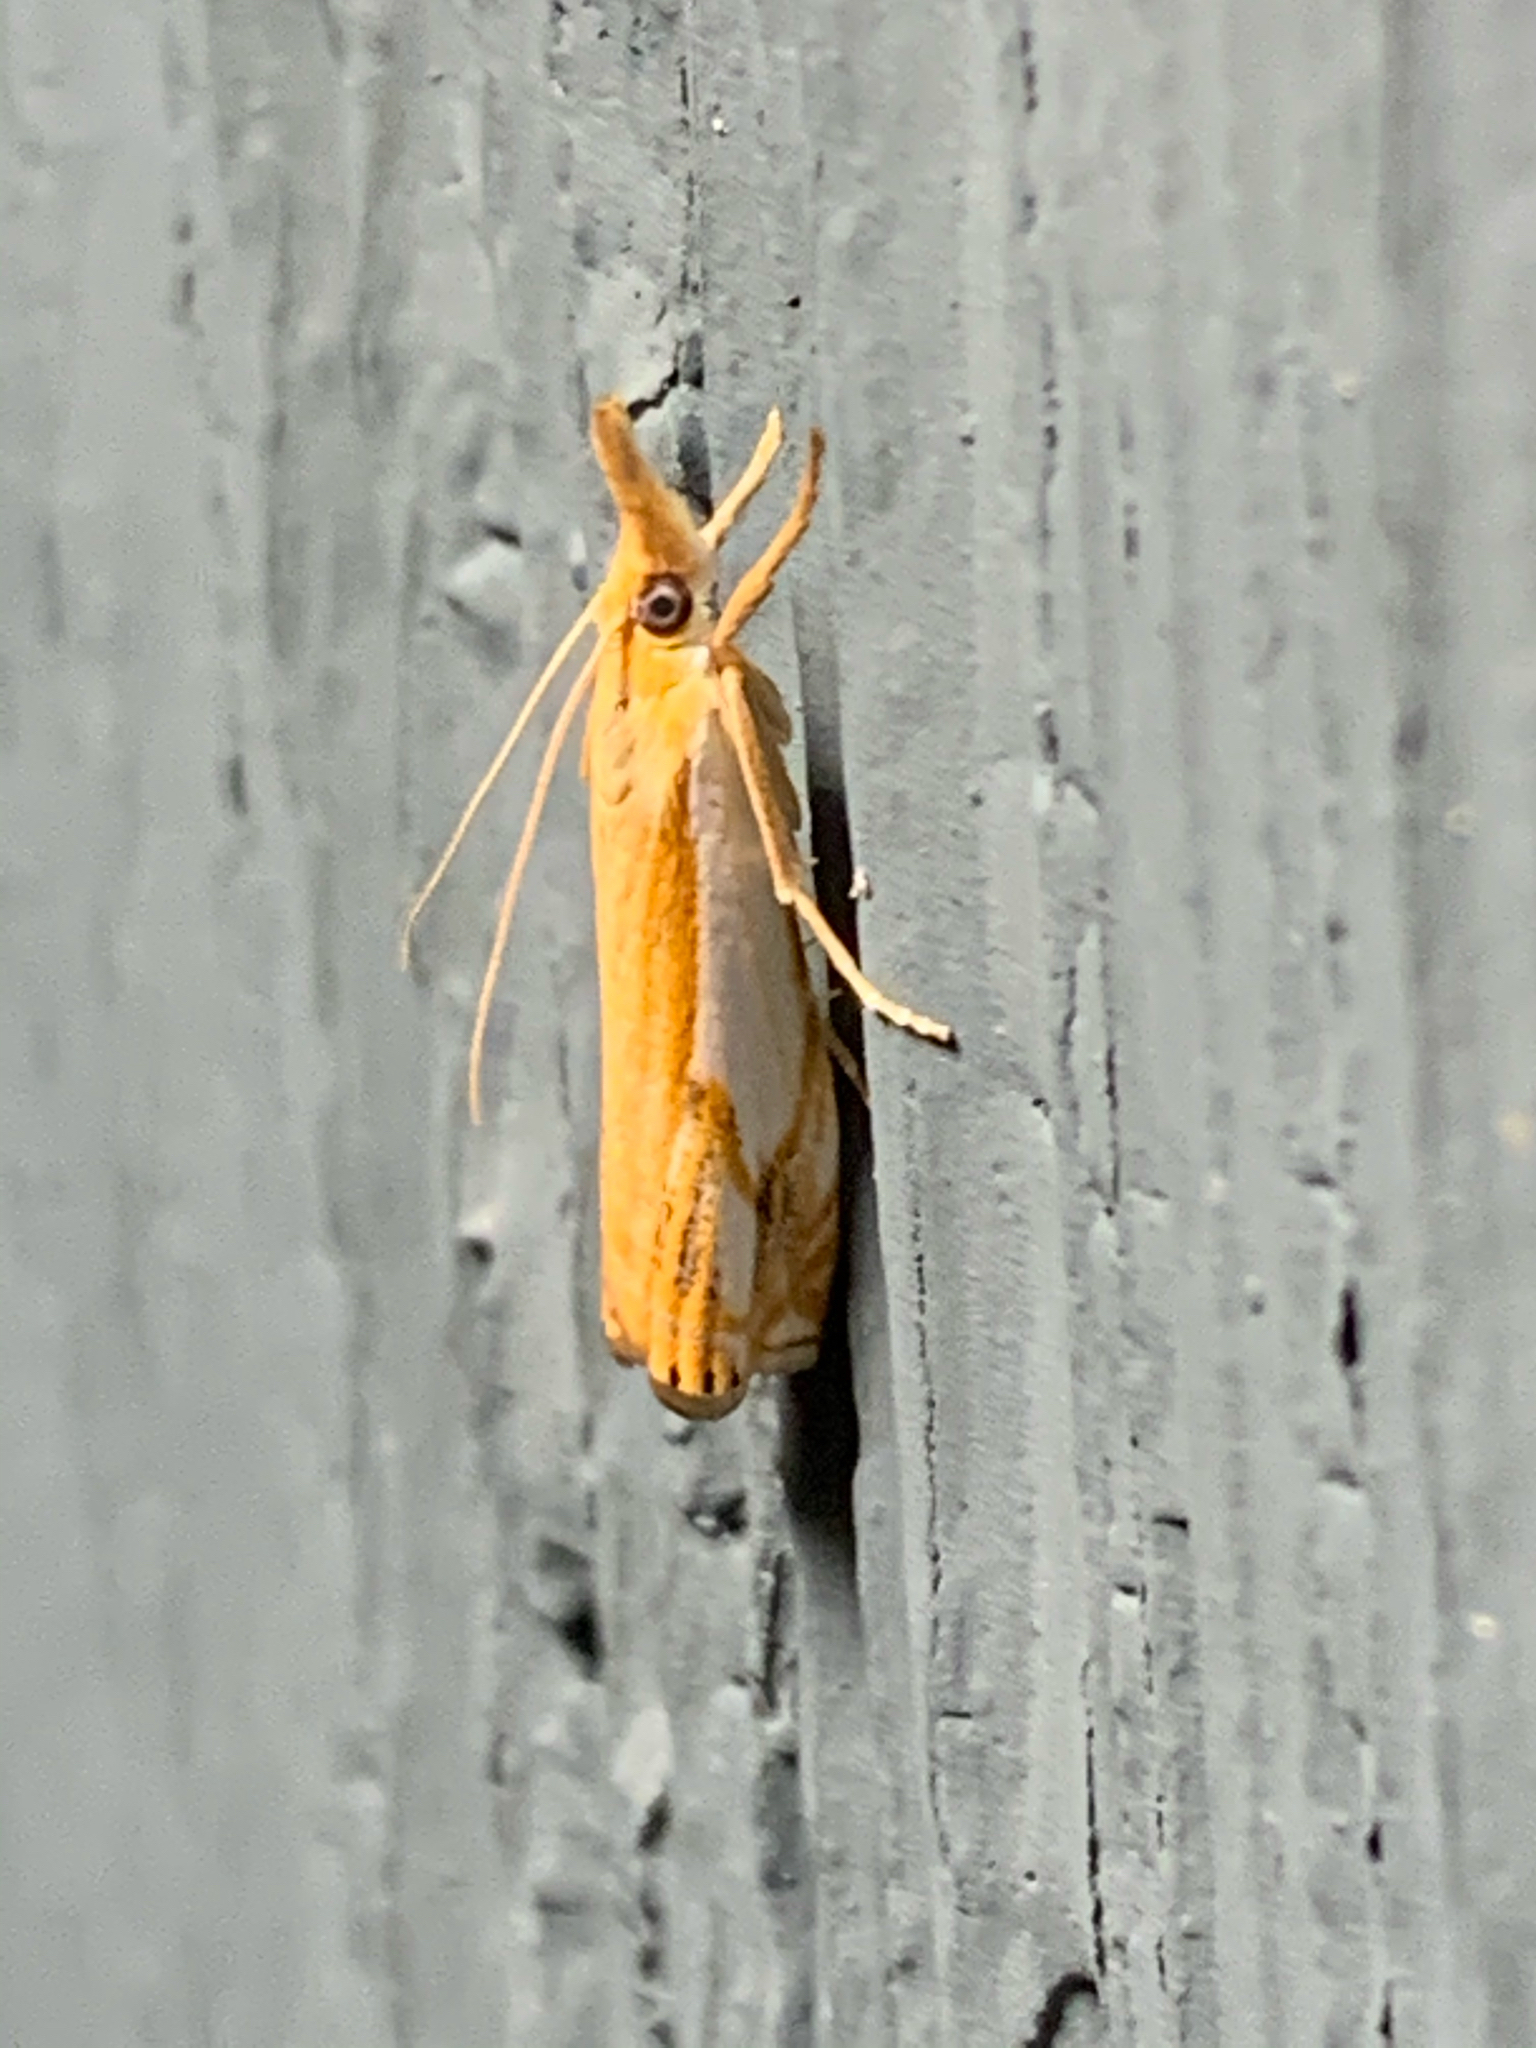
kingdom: Animalia
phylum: Arthropoda
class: Insecta
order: Lepidoptera
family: Crambidae
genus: Crambus
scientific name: Crambus agitatellus
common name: Double-banded grass-veneer
